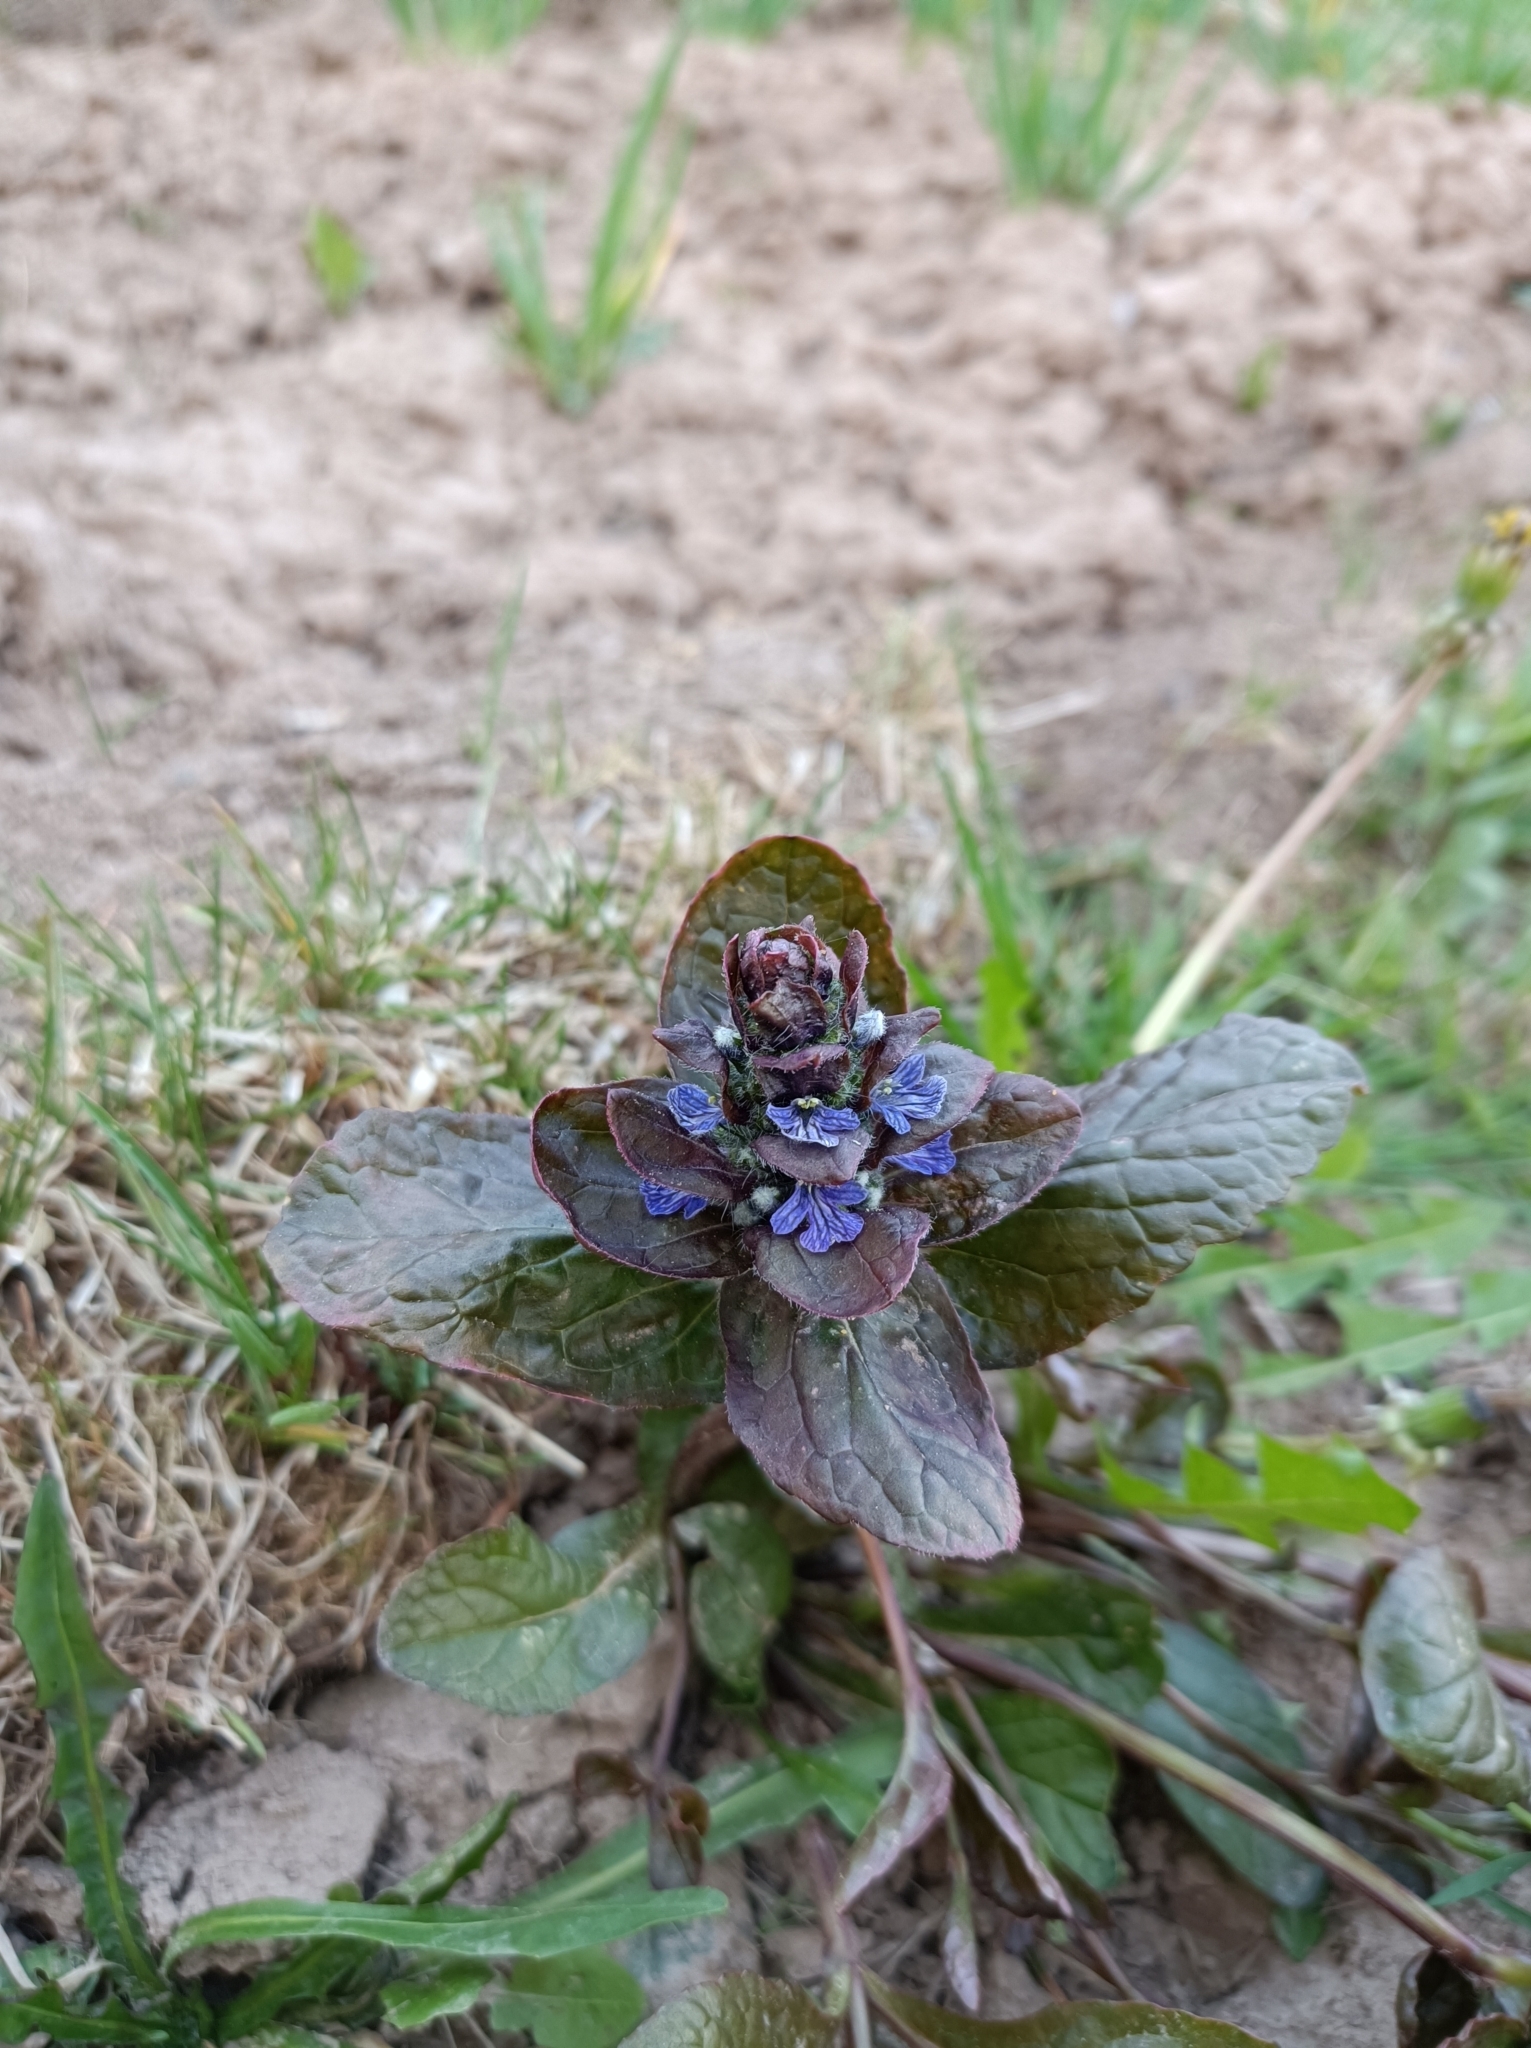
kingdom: Plantae
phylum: Tracheophyta
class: Magnoliopsida
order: Lamiales
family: Lamiaceae
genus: Ajuga
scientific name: Ajuga reptans
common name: Bugle
